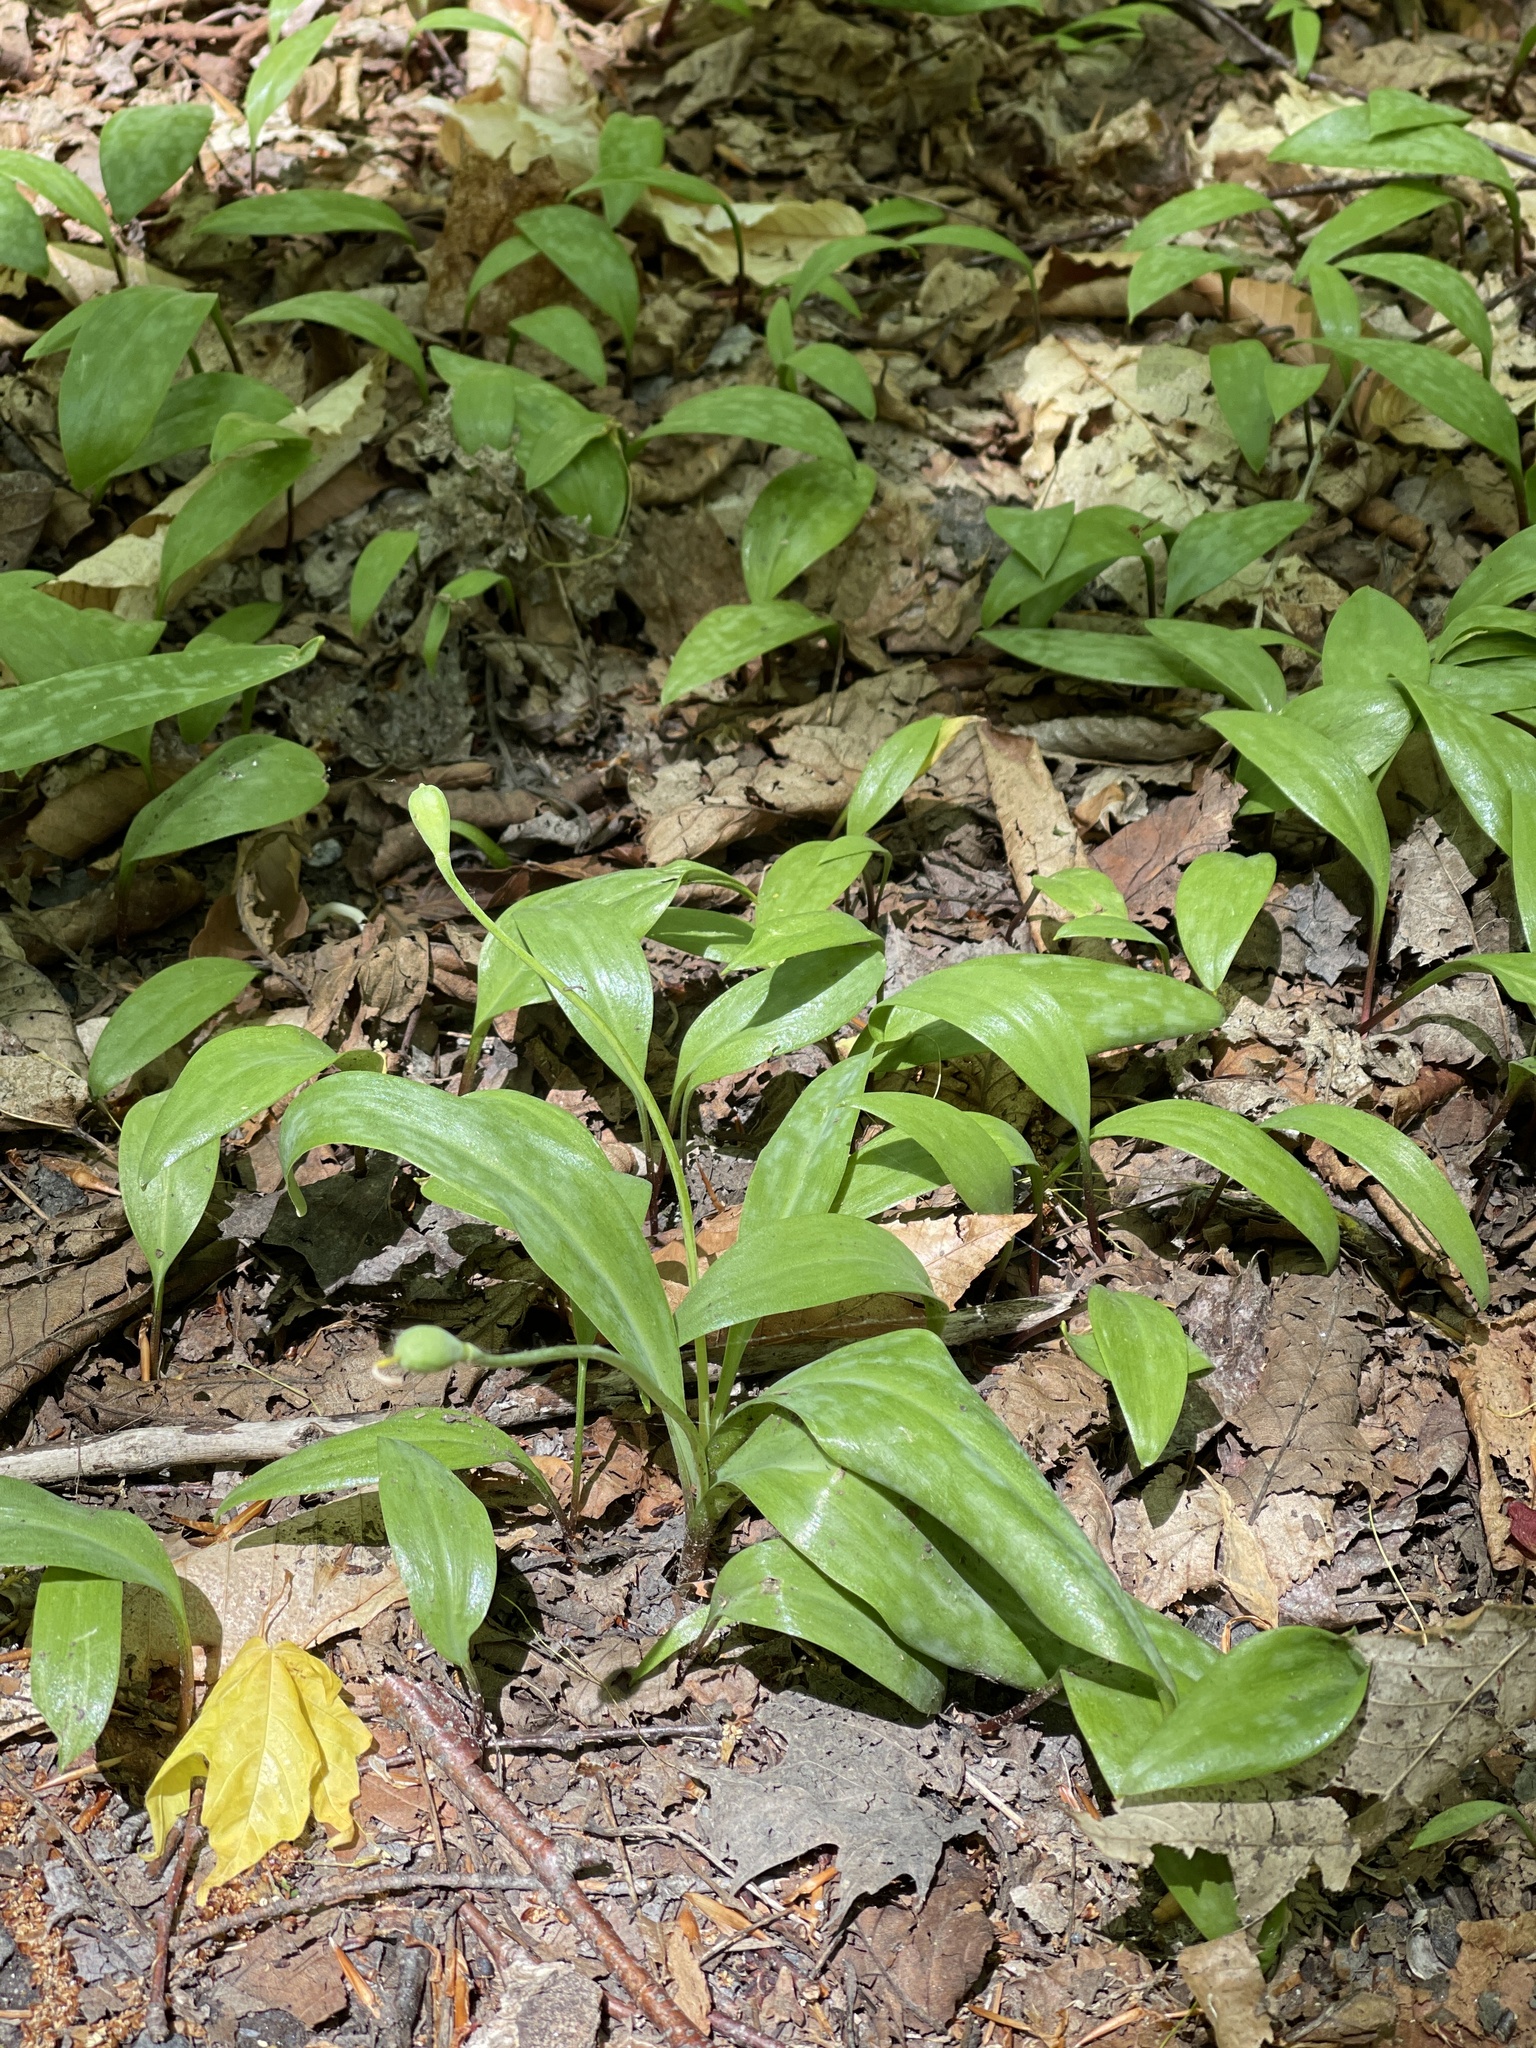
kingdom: Plantae
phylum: Tracheophyta
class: Liliopsida
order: Liliales
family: Liliaceae
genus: Erythronium
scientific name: Erythronium americanum
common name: Yellow adder's-tongue
